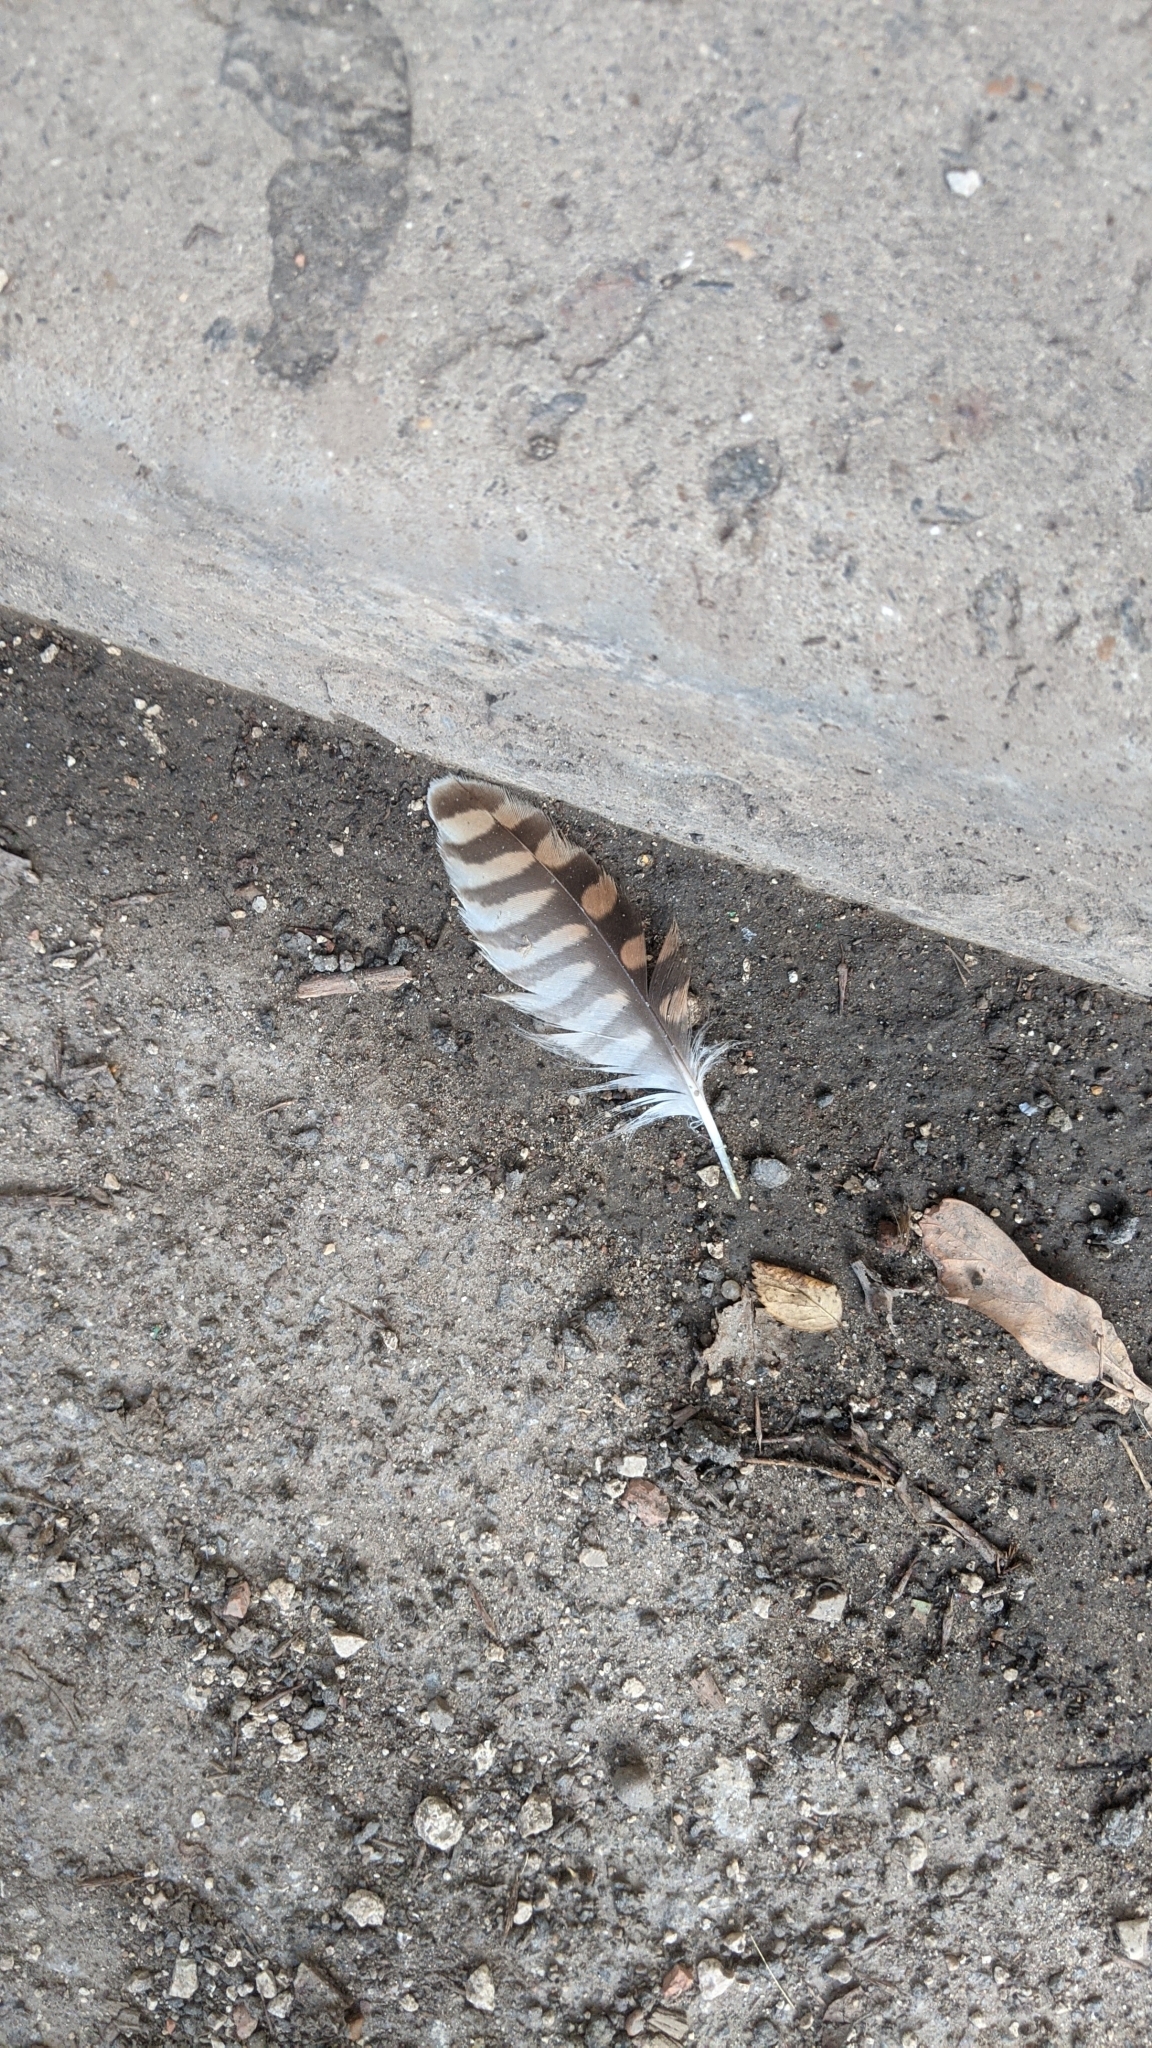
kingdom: Animalia
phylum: Chordata
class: Aves
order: Falconiformes
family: Falconidae
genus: Falco
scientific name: Falco tinnunculus
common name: Common kestrel
